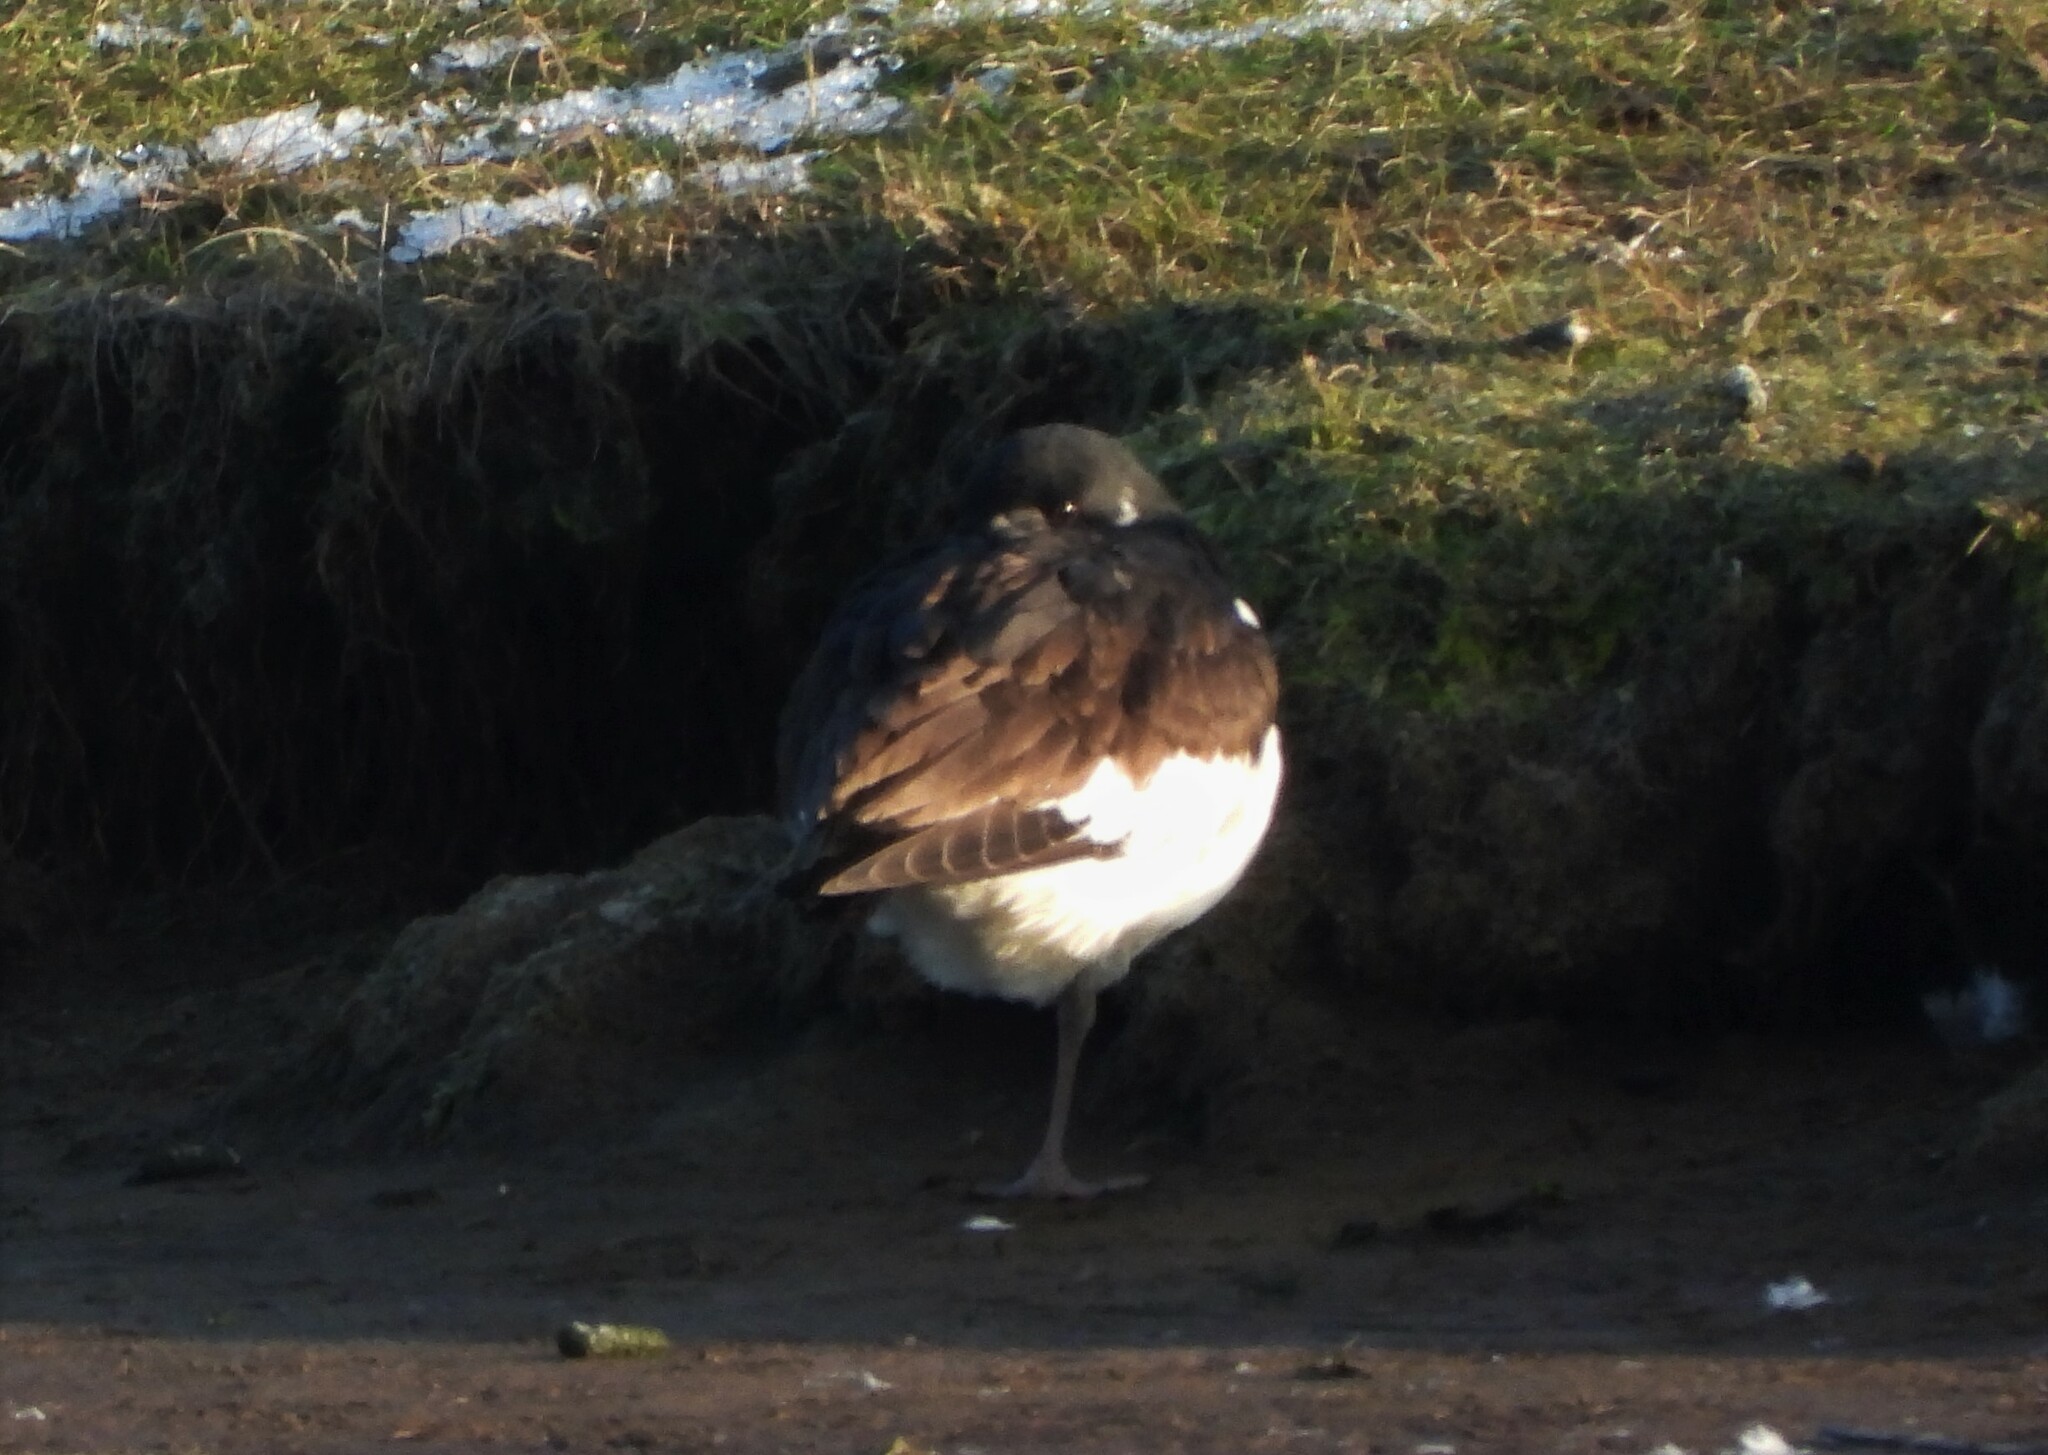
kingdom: Animalia
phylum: Chordata
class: Aves
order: Charadriiformes
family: Haematopodidae
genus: Haematopus
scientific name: Haematopus ostralegus
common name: Eurasian oystercatcher
